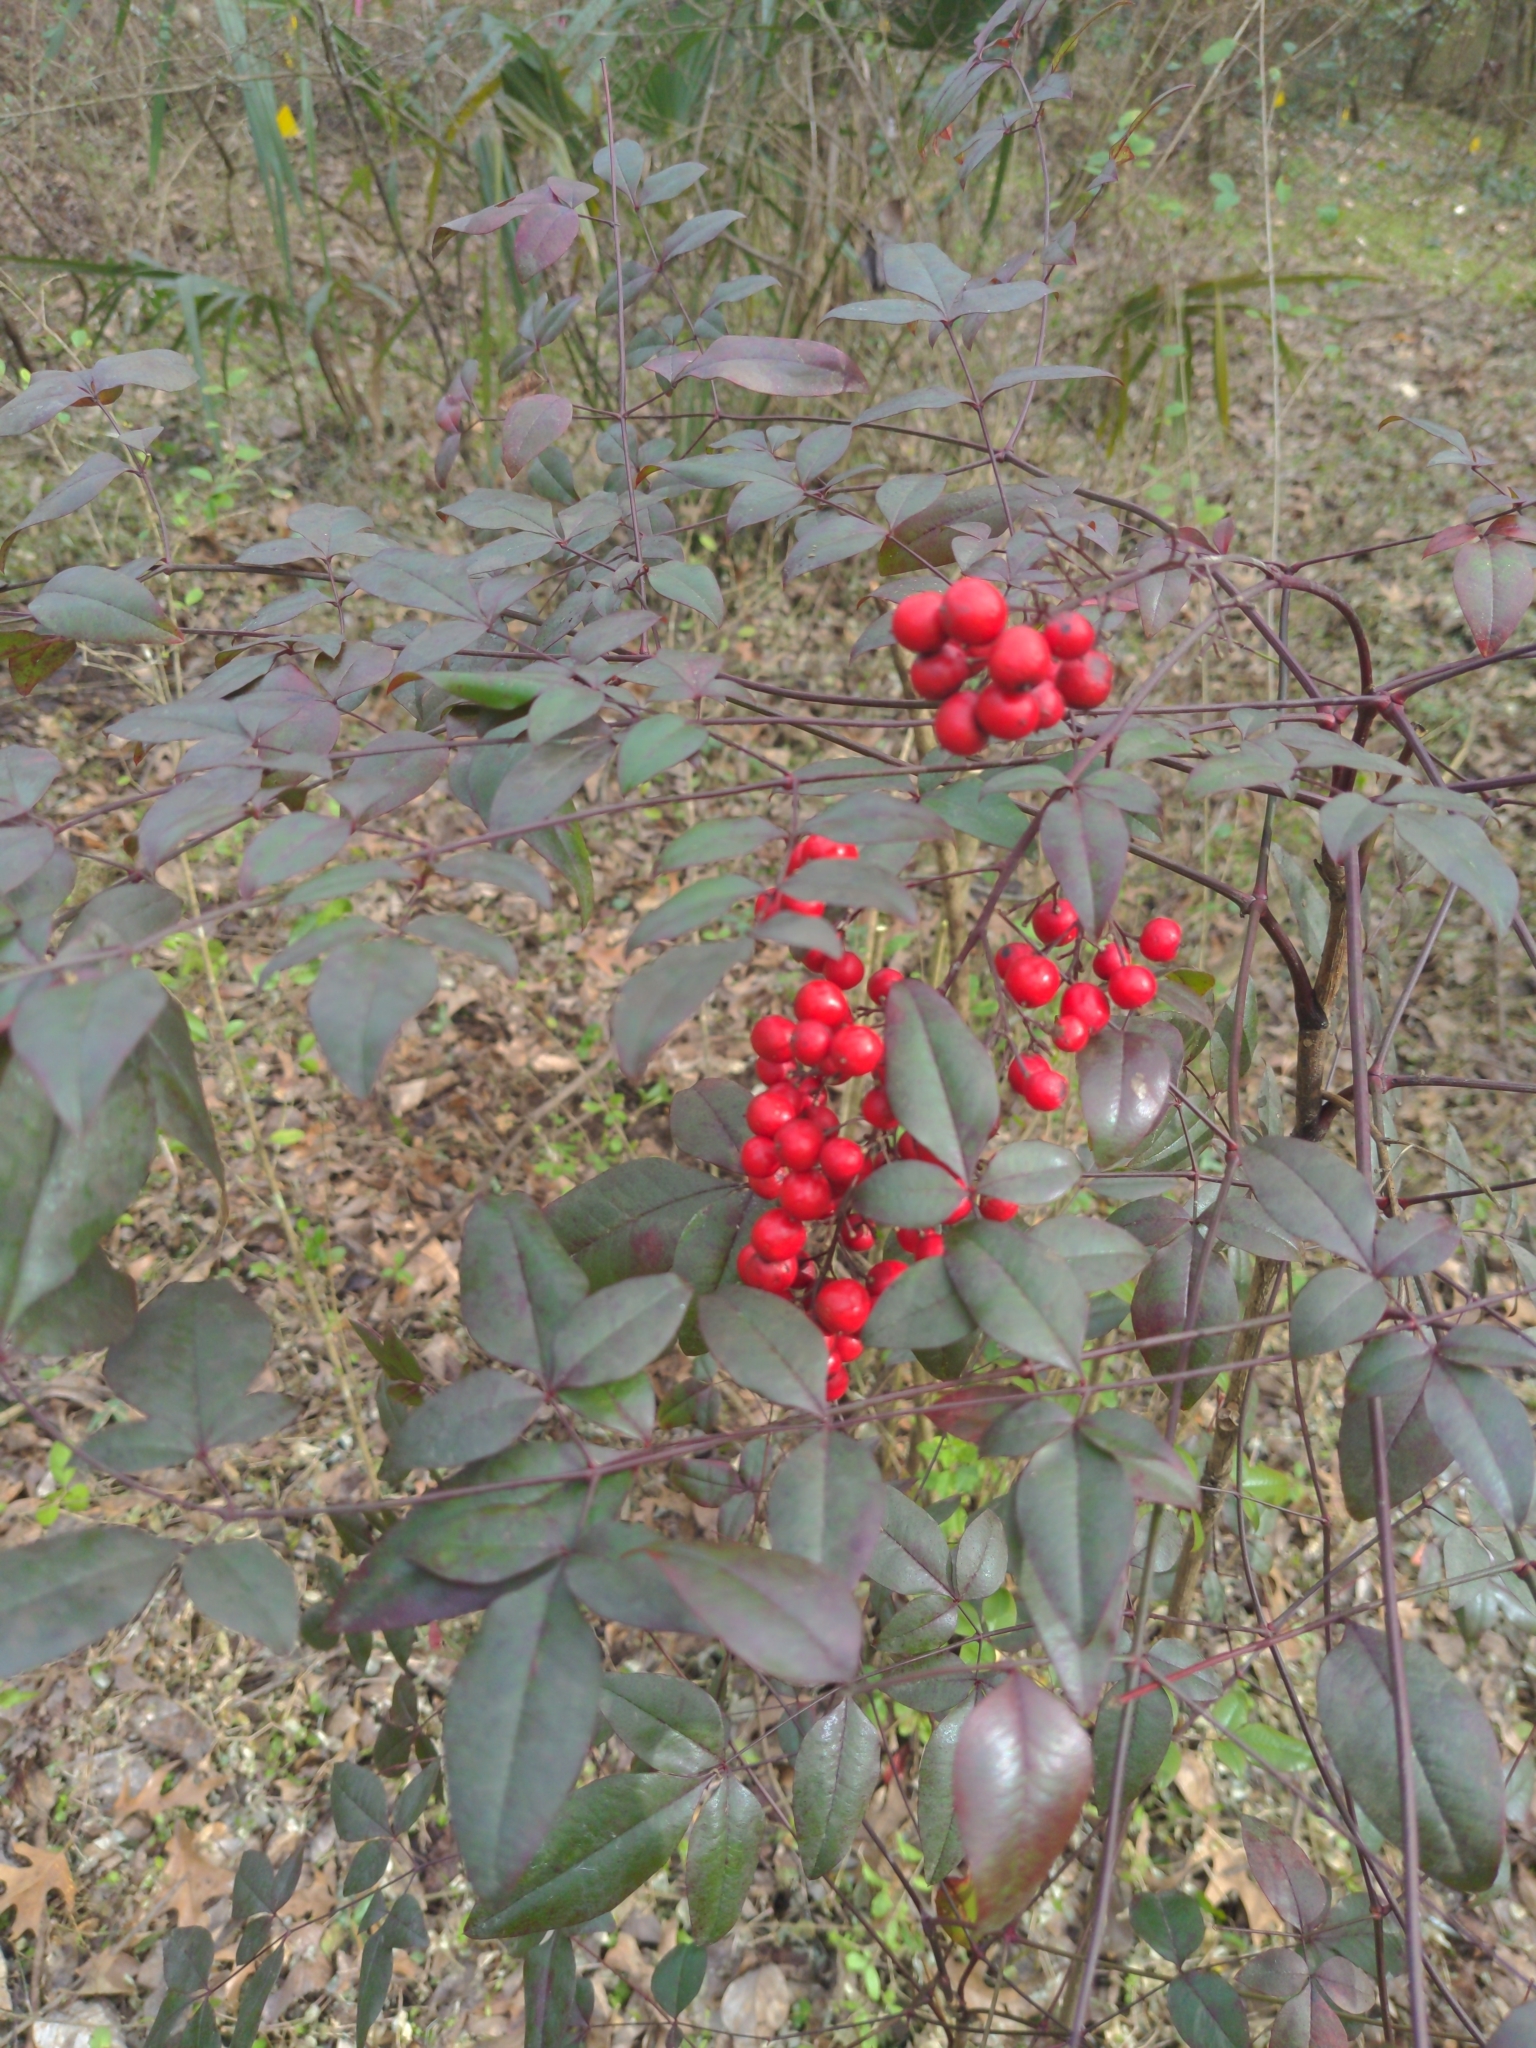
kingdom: Plantae
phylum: Tracheophyta
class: Magnoliopsida
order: Ranunculales
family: Berberidaceae
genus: Nandina
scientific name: Nandina domestica
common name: Sacred bamboo
